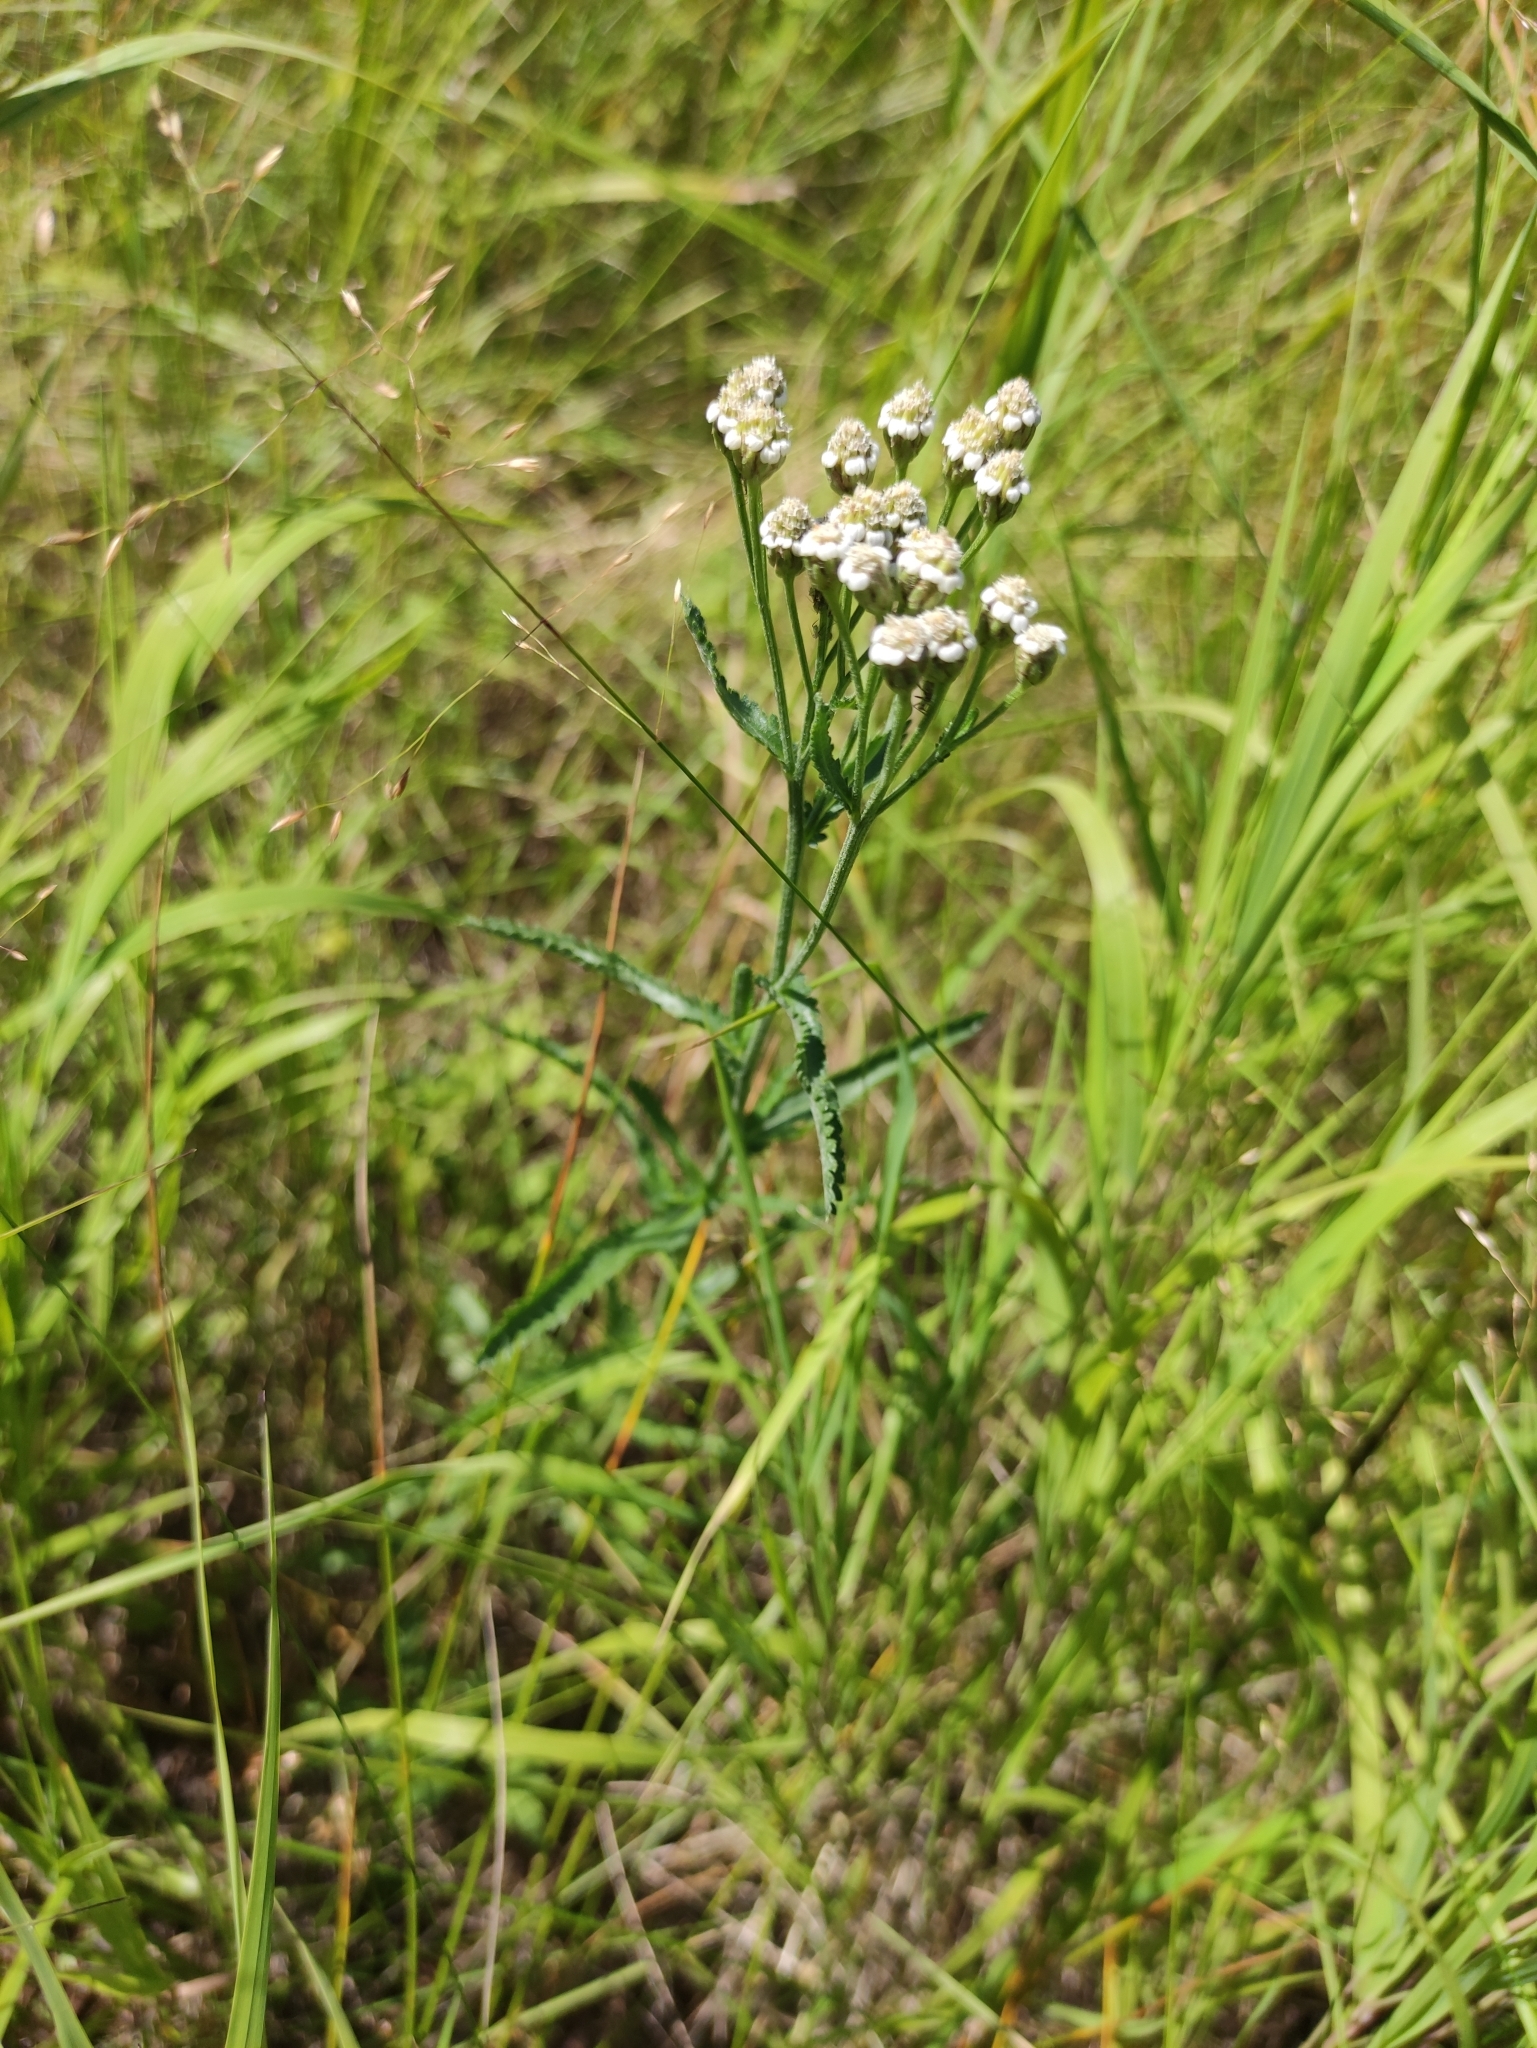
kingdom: Plantae
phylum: Tracheophyta
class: Magnoliopsida
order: Asterales
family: Asteraceae
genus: Achillea
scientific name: Achillea alpina
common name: Siberian yarrow
